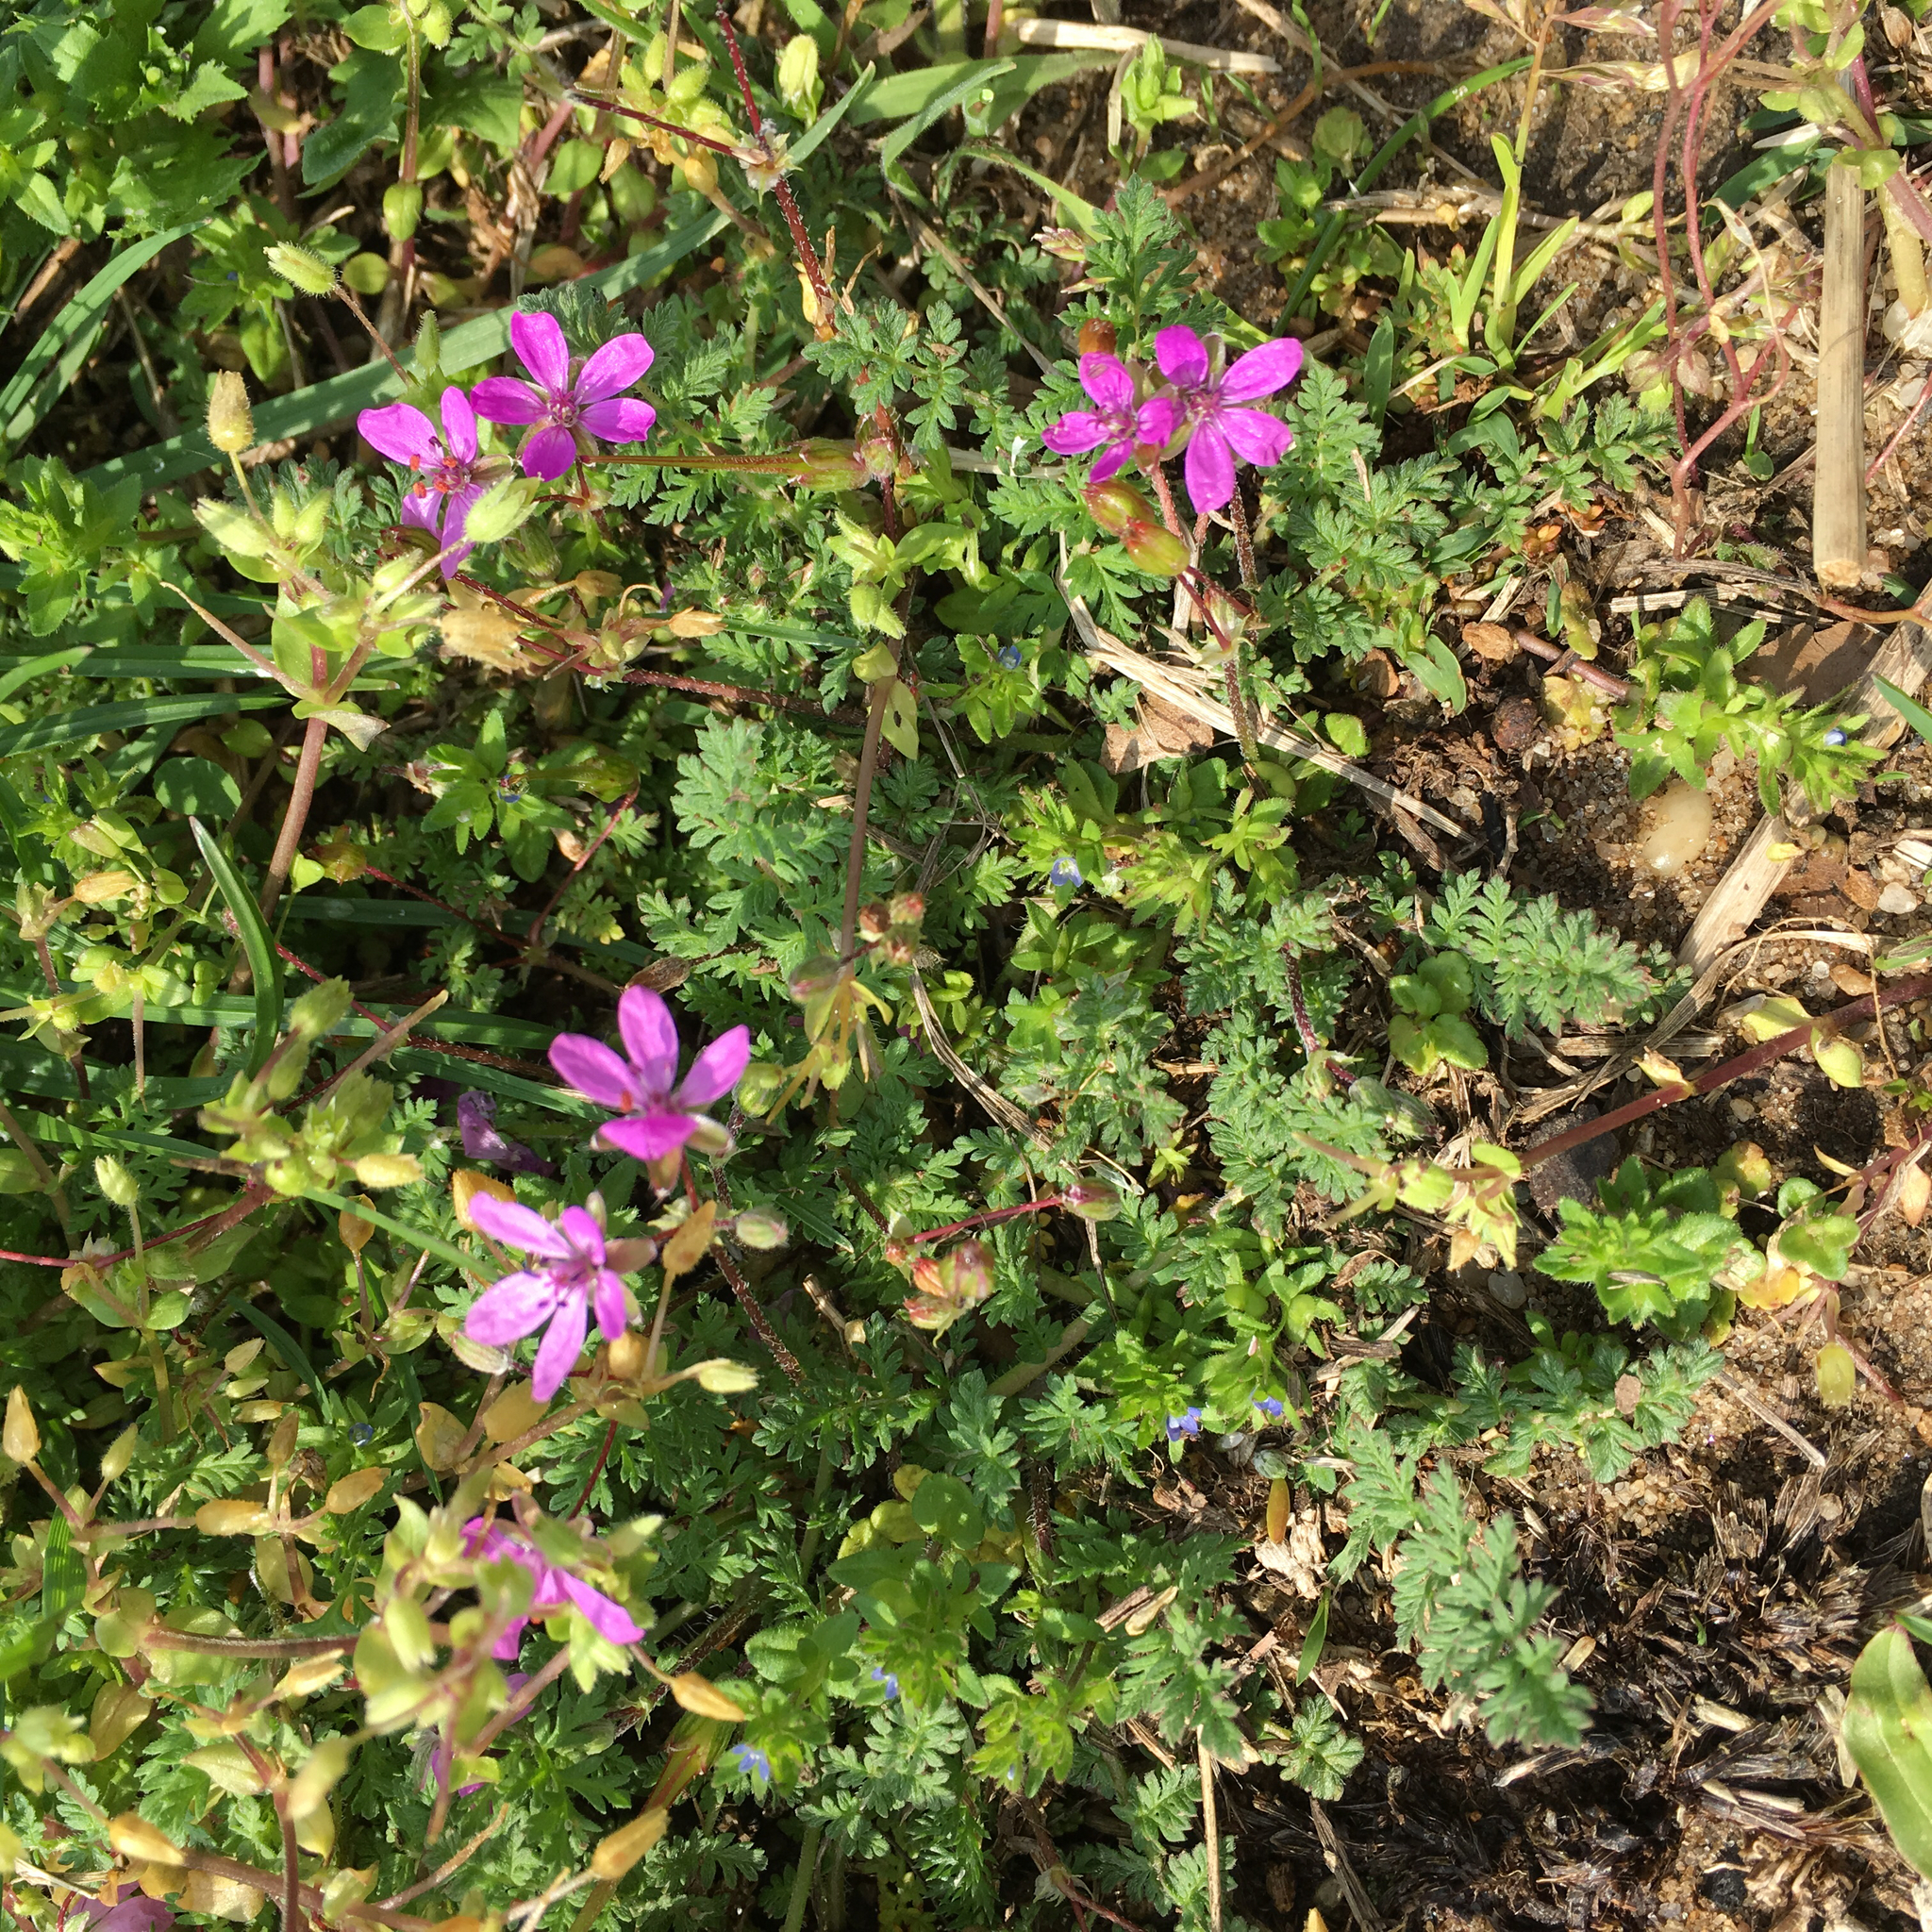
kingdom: Plantae
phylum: Tracheophyta
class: Magnoliopsida
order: Geraniales
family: Geraniaceae
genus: Erodium
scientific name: Erodium cicutarium
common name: Common stork's-bill
